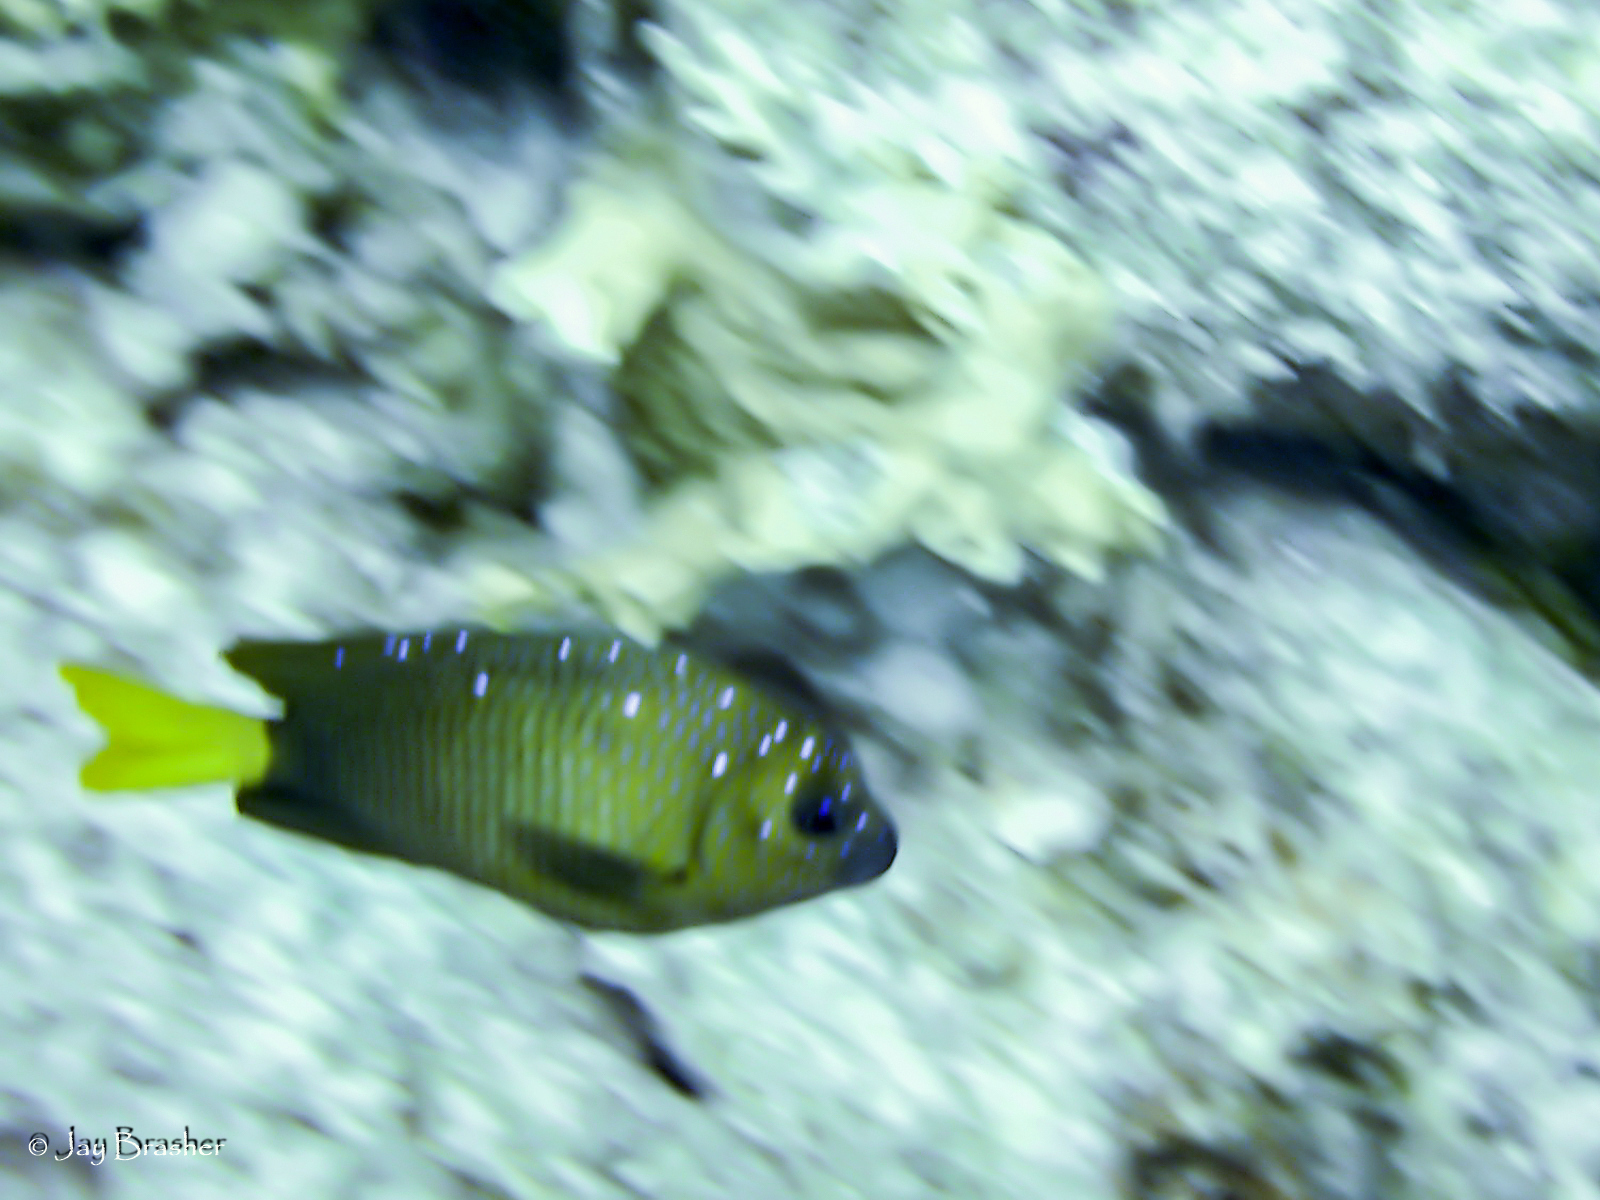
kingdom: Animalia
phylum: Chordata
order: Perciformes
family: Pomacentridae
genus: Microspathodon
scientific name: Microspathodon chrysurus
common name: Yellowtail damselfish
